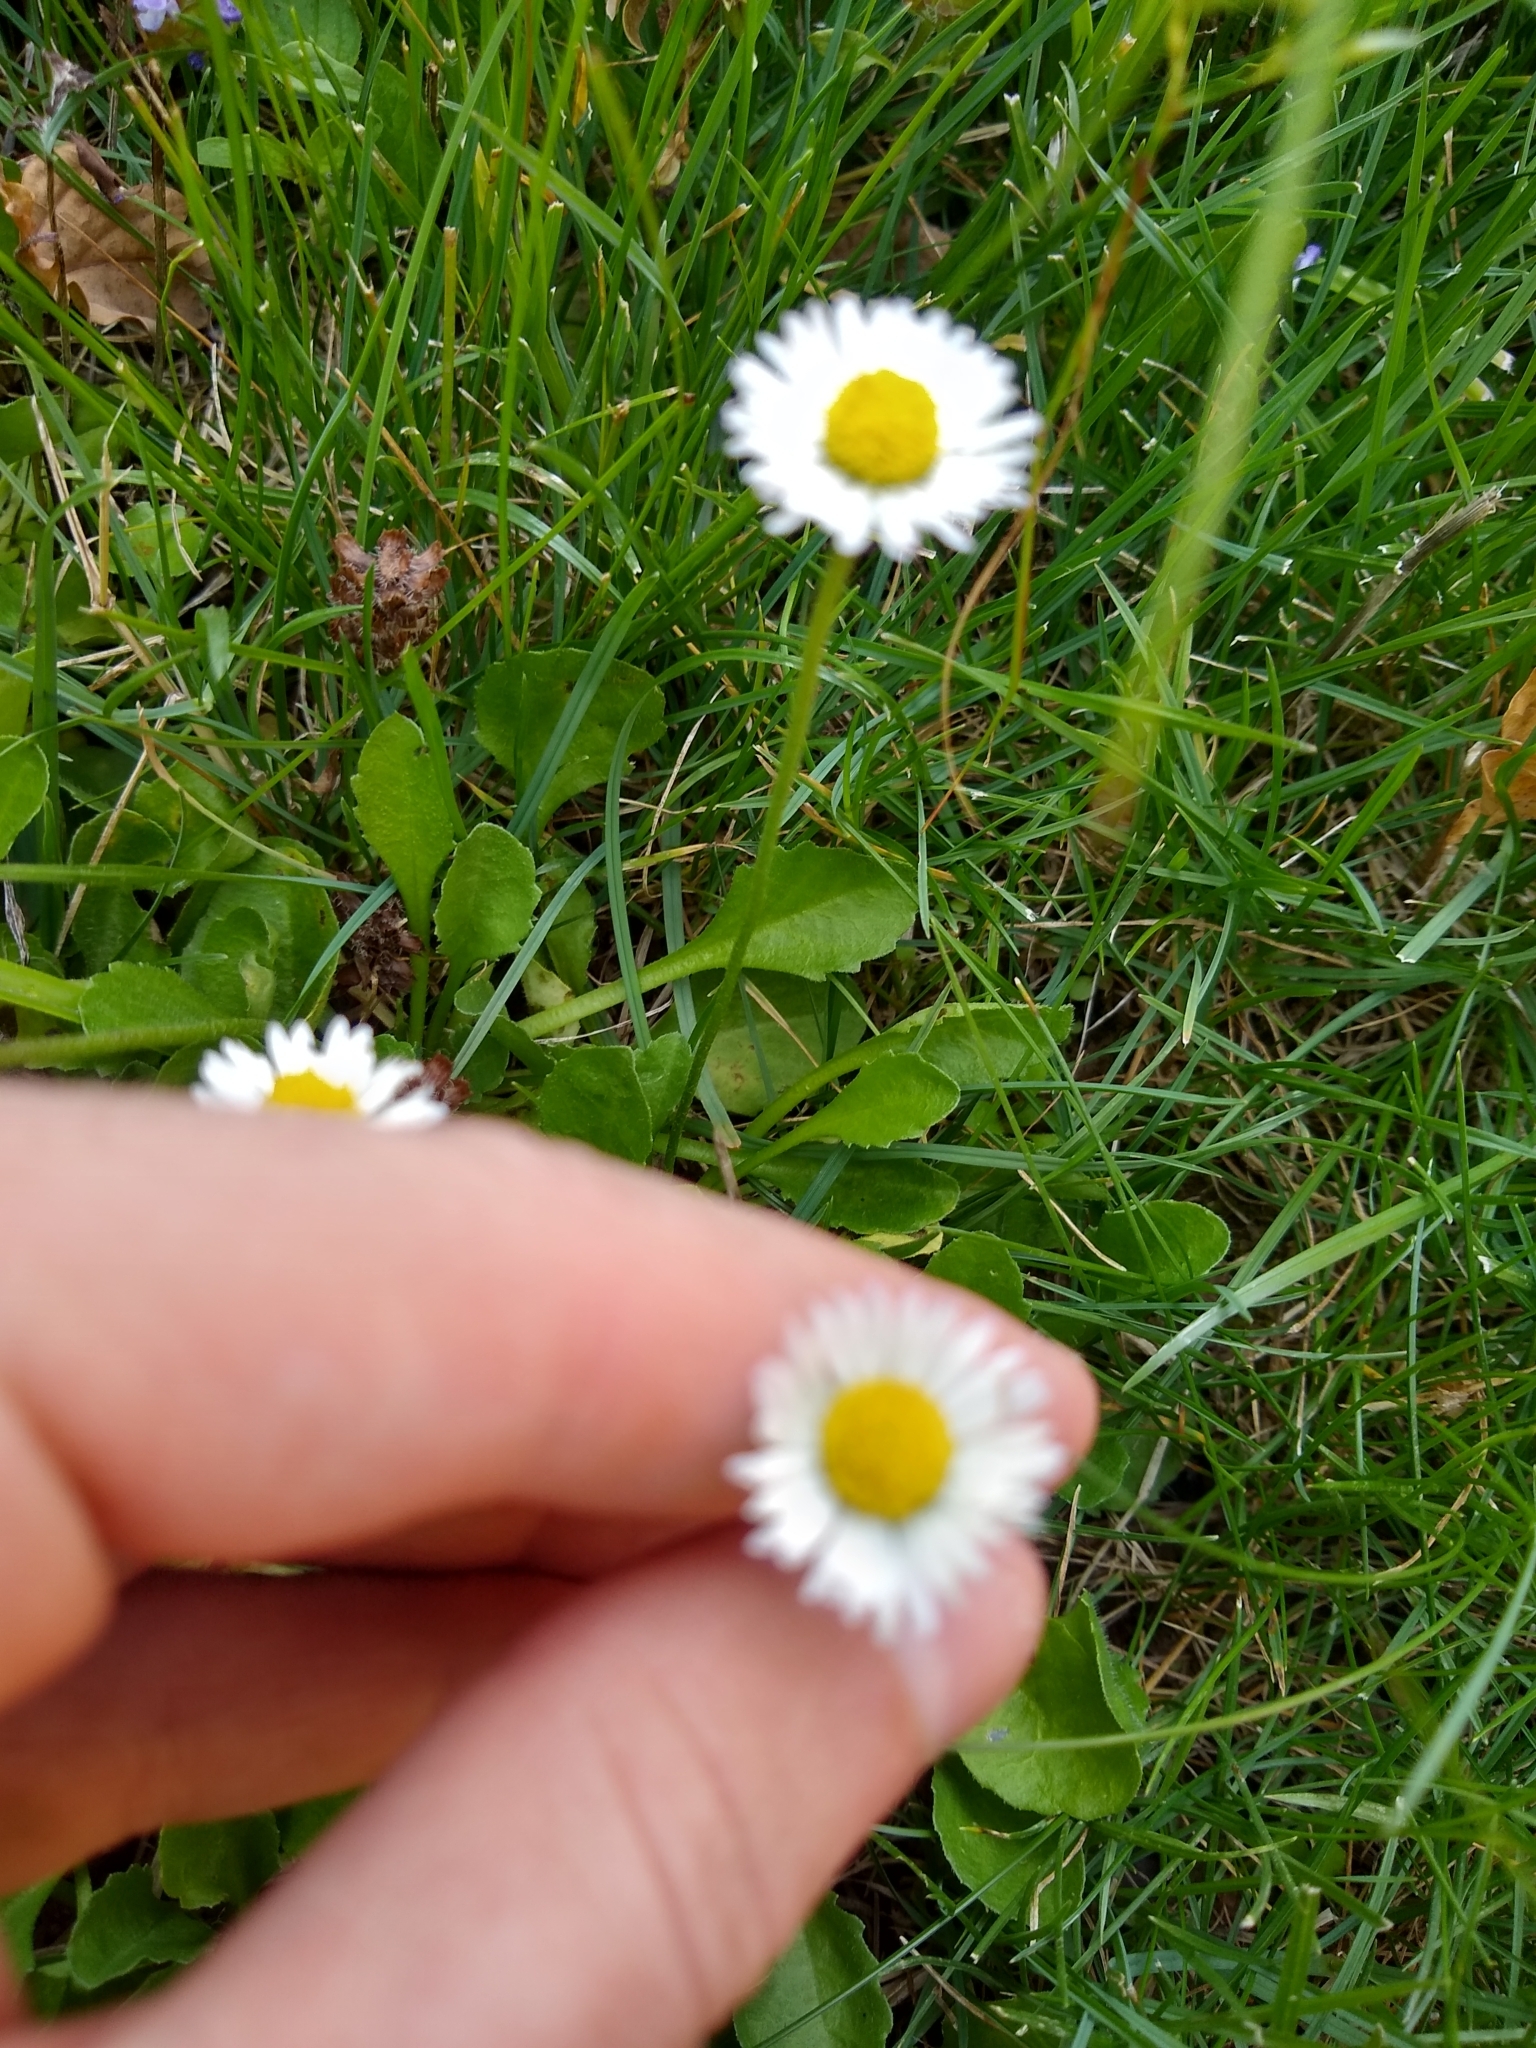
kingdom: Plantae
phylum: Tracheophyta
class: Magnoliopsida
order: Asterales
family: Asteraceae
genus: Bellis
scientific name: Bellis perennis
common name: Lawndaisy
